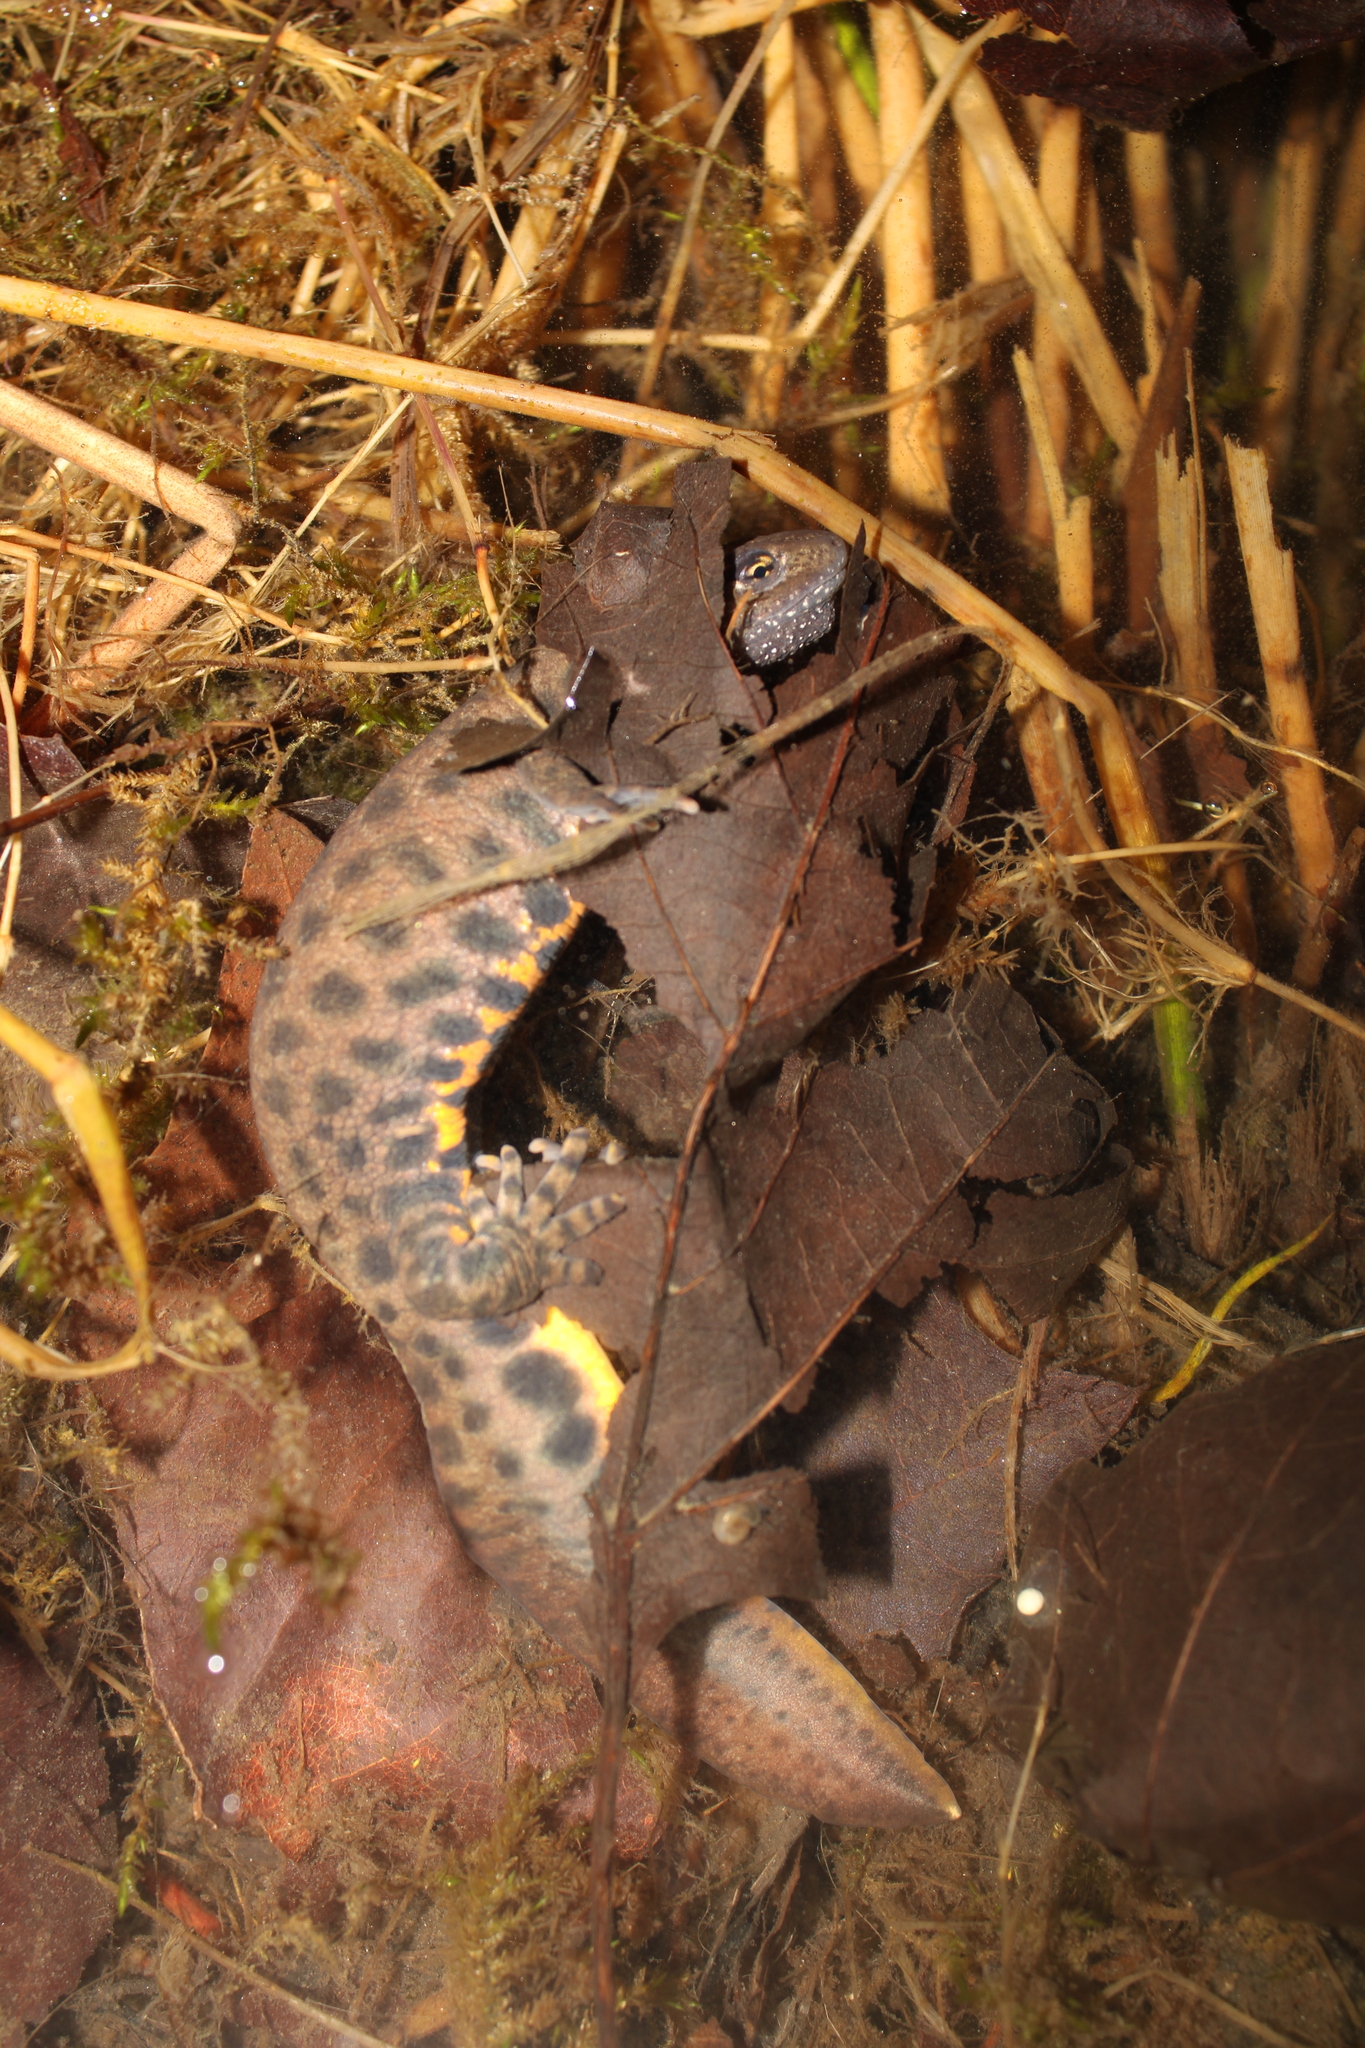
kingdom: Animalia
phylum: Chordata
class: Amphibia
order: Caudata
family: Salamandridae
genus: Triturus
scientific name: Triturus carnifex
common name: Italian crested newt
